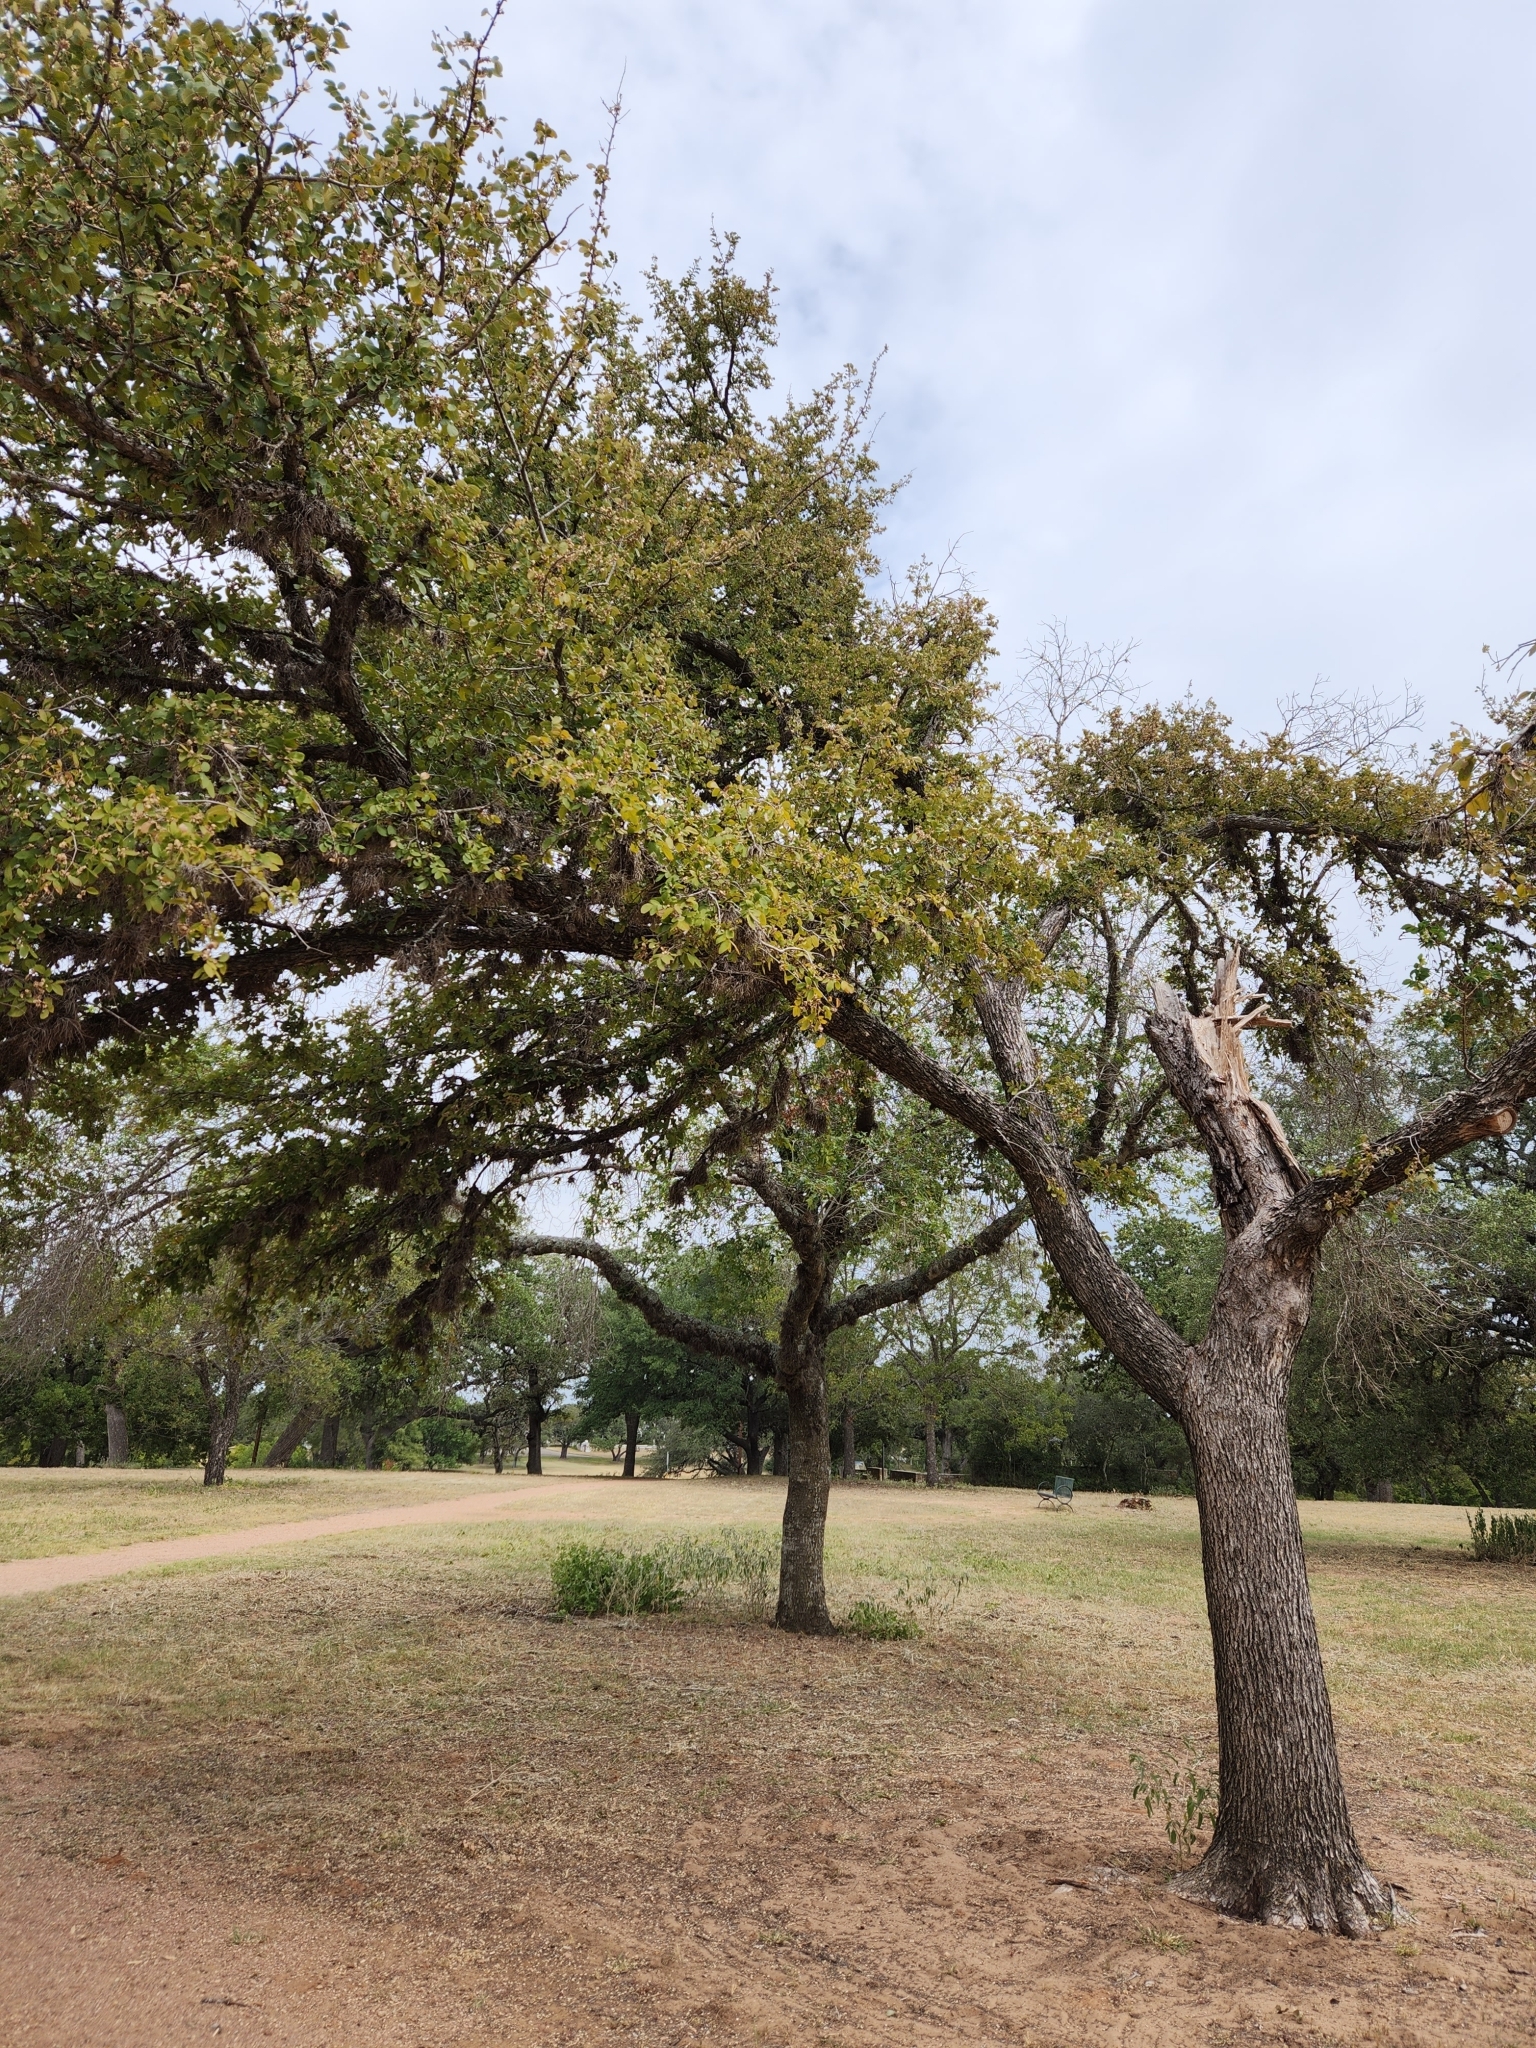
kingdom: Plantae
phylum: Tracheophyta
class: Magnoliopsida
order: Rosales
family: Ulmaceae
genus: Ulmus
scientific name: Ulmus crassifolia
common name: Basket elm
